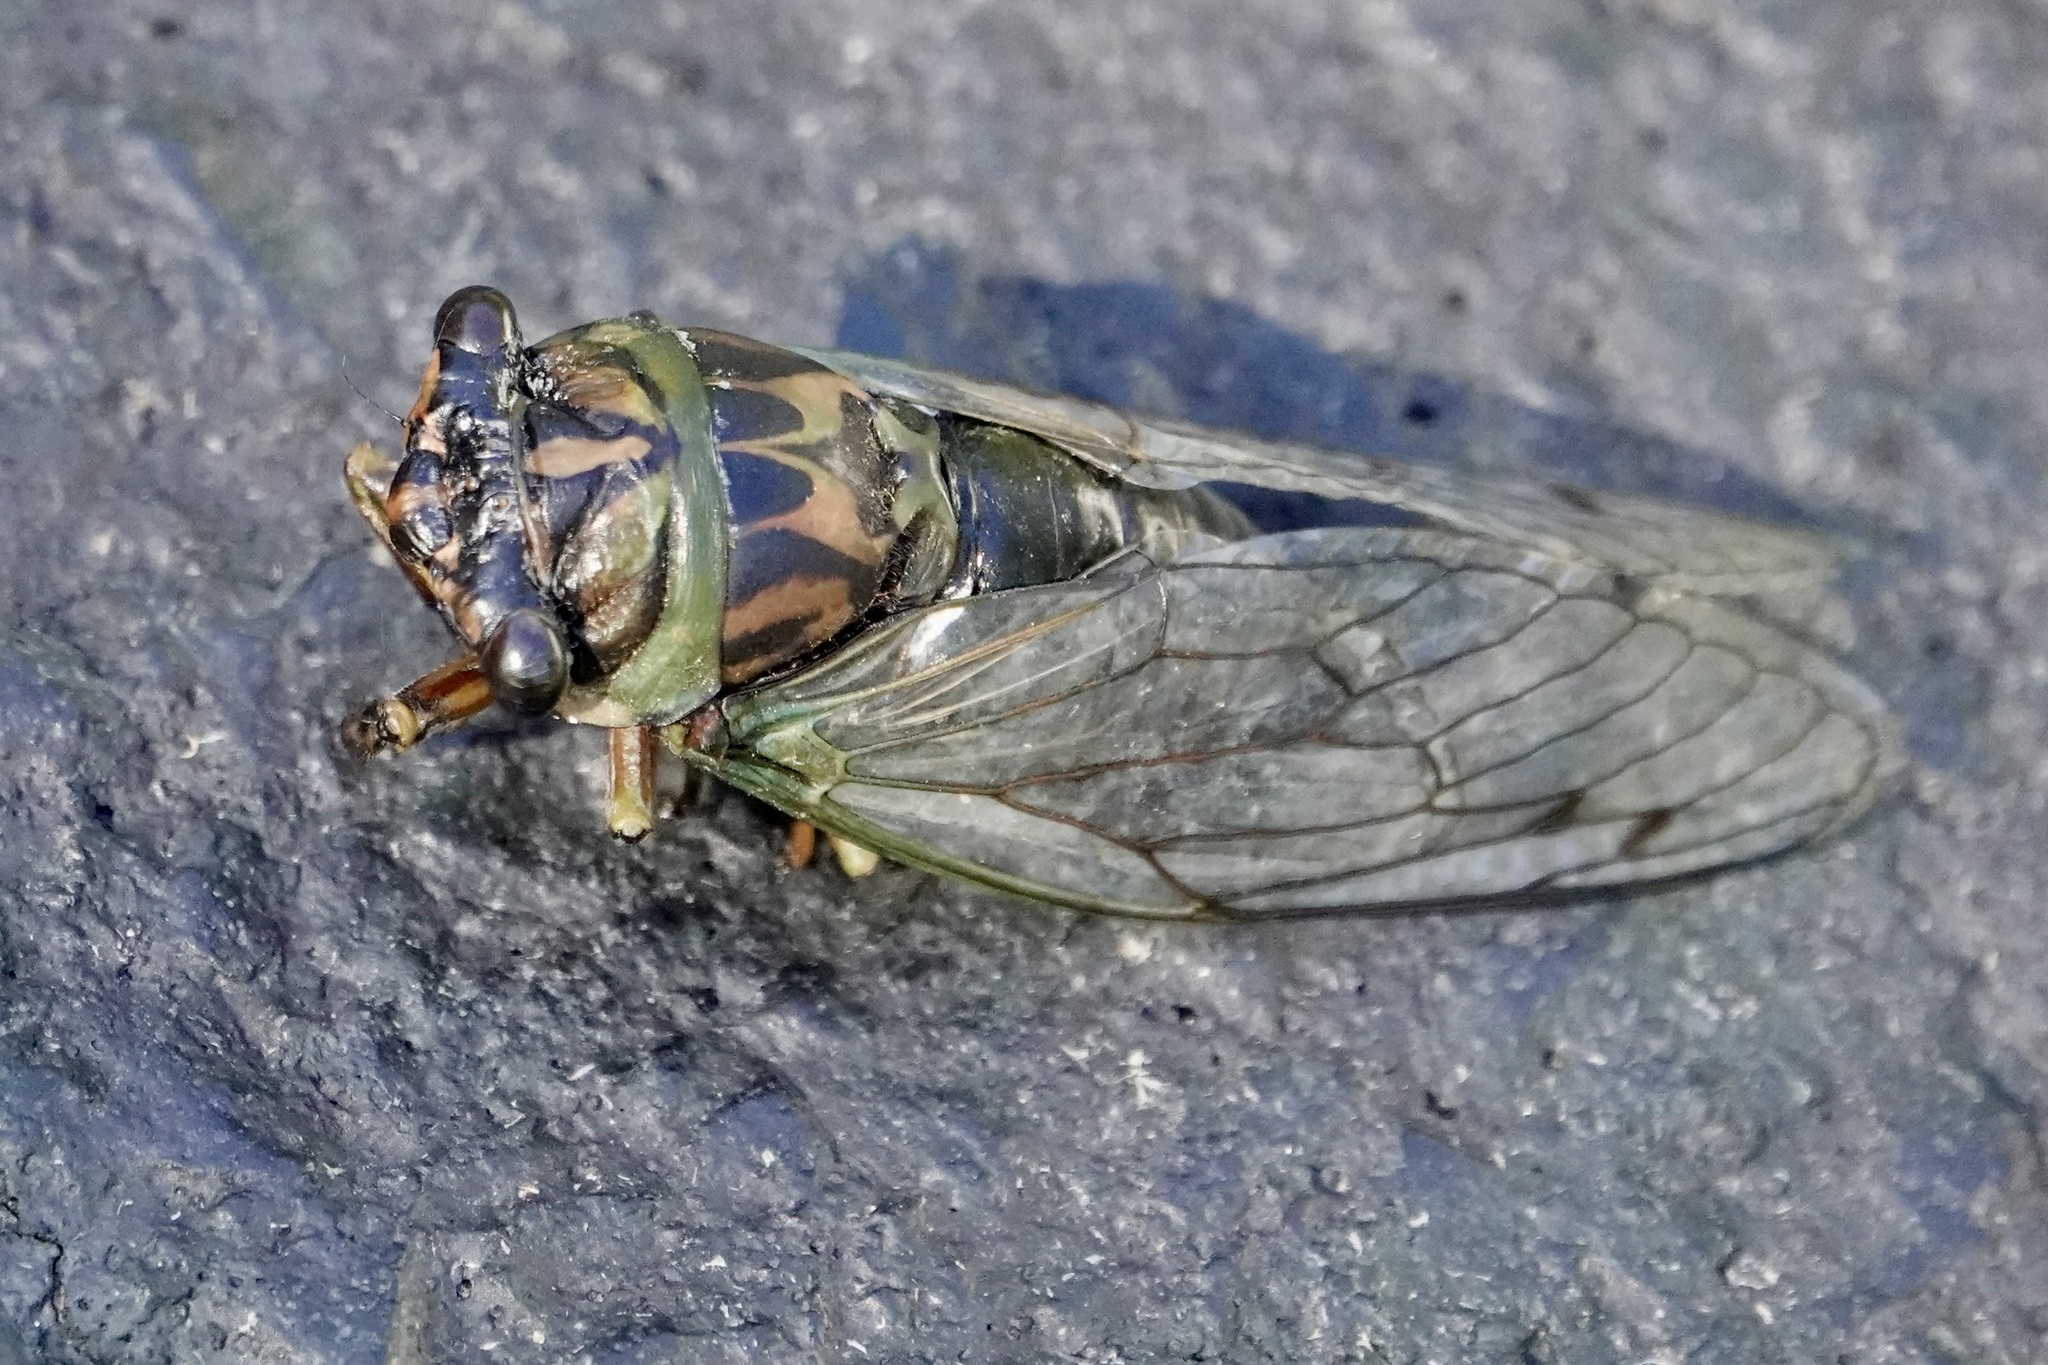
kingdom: Animalia
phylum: Arthropoda
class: Insecta
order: Hemiptera
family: Cicadidae
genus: Neotibicen
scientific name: Neotibicen linnei
